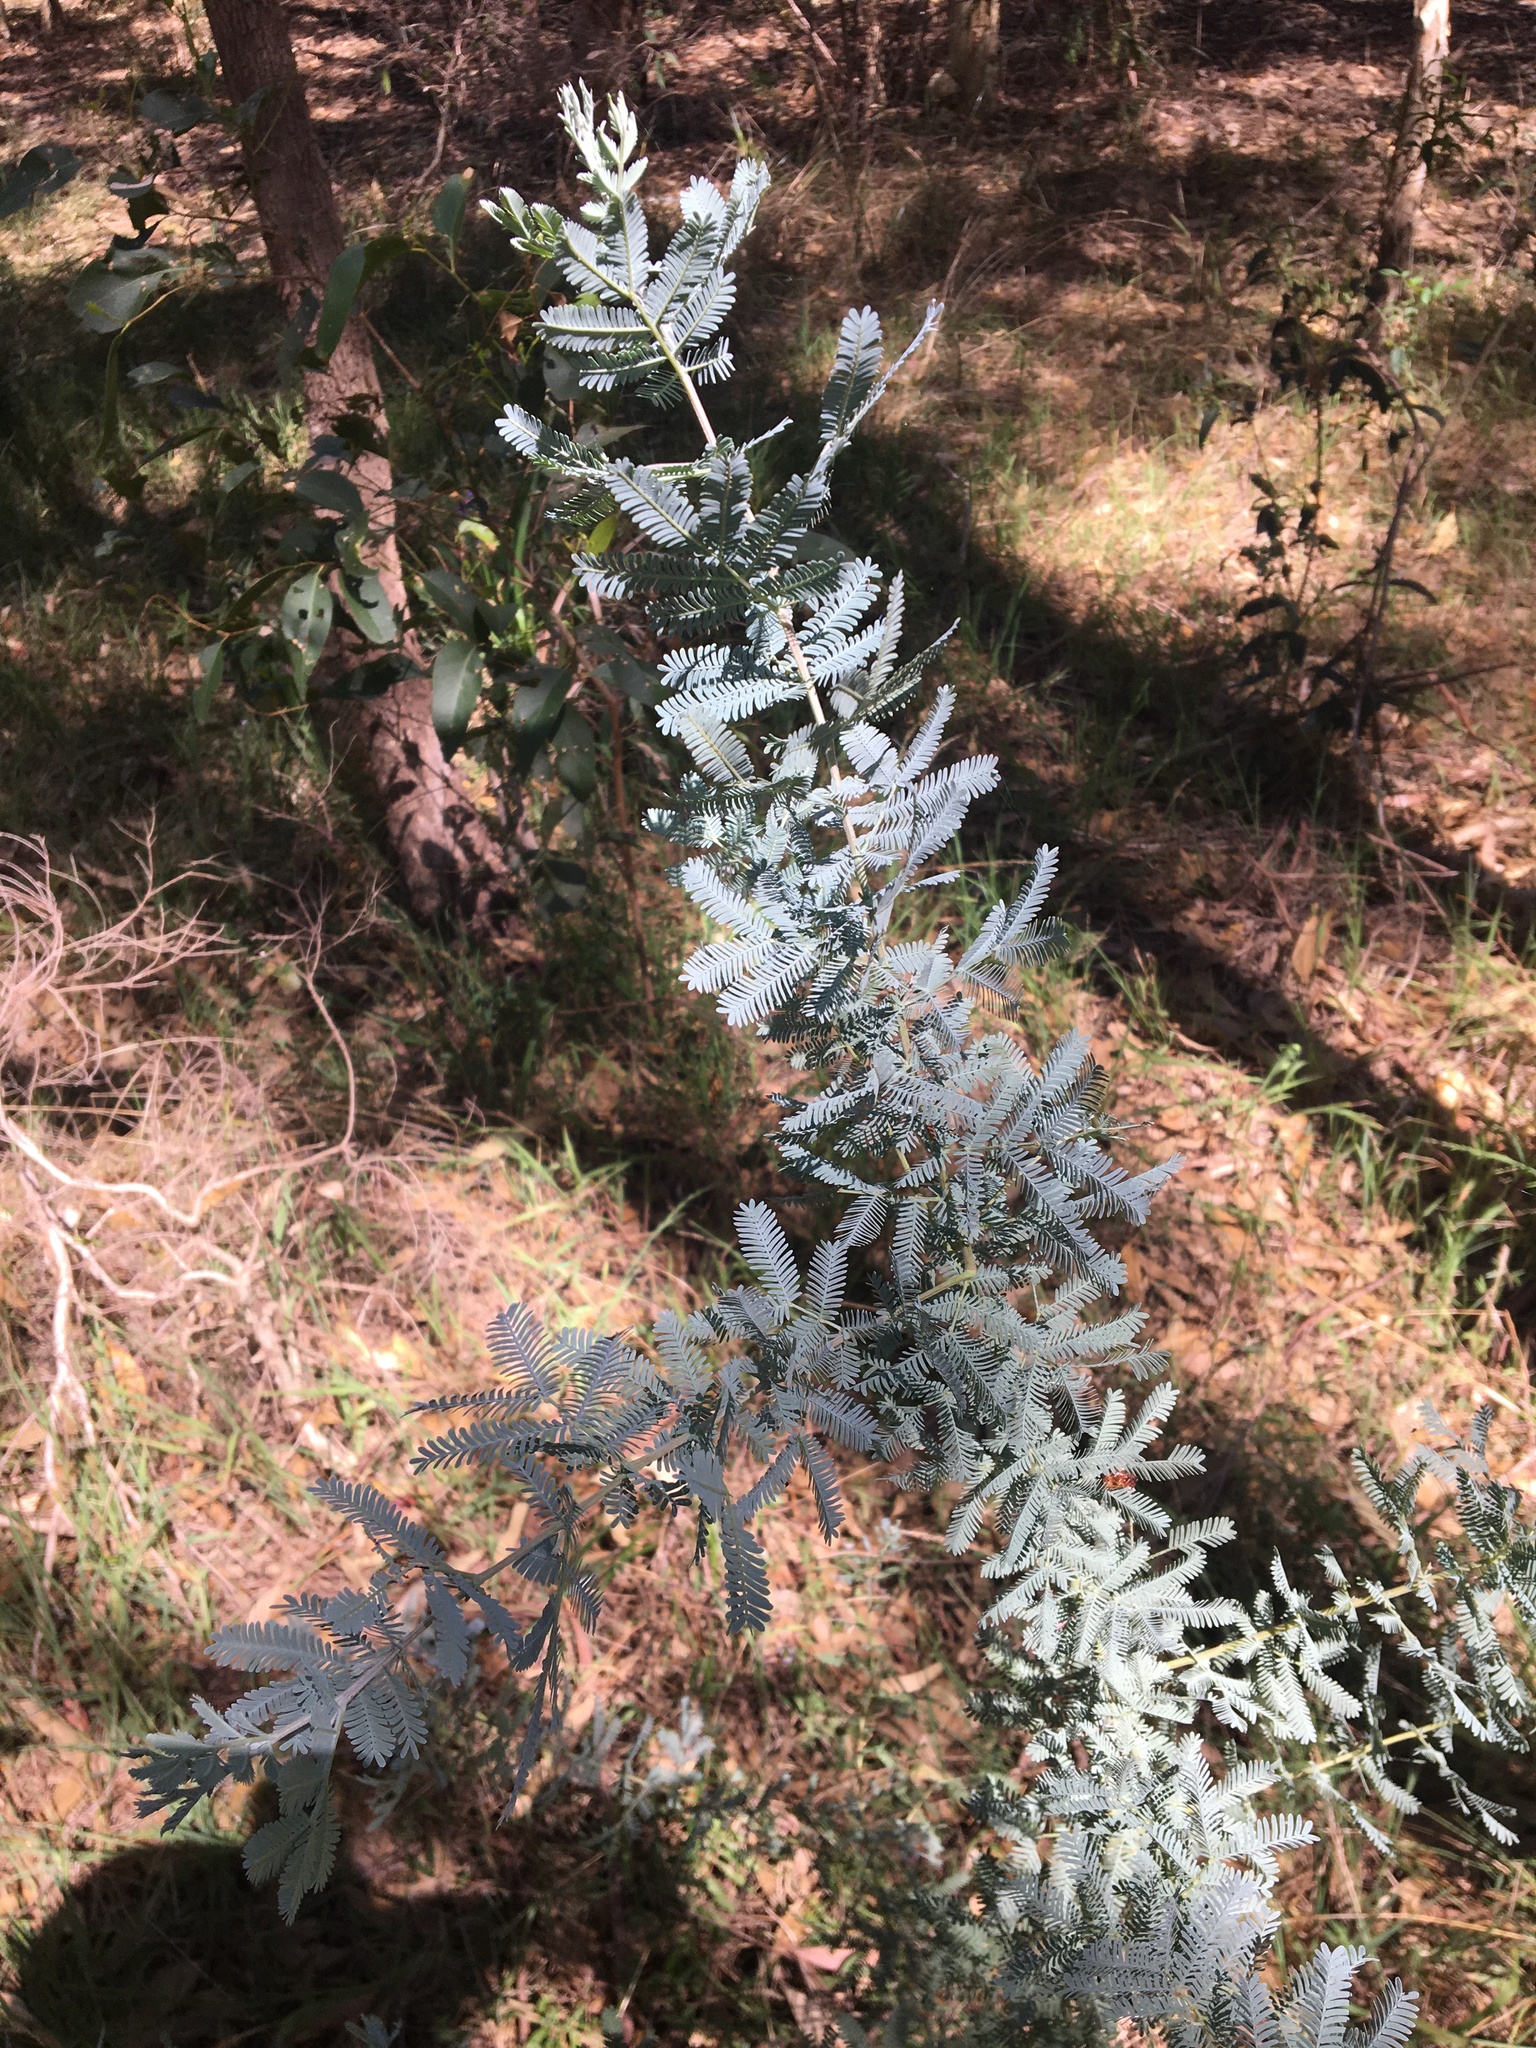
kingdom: Plantae
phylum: Tracheophyta
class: Magnoliopsida
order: Fabales
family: Fabaceae
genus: Acacia
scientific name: Acacia baileyana
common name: Cootamundra wattle
